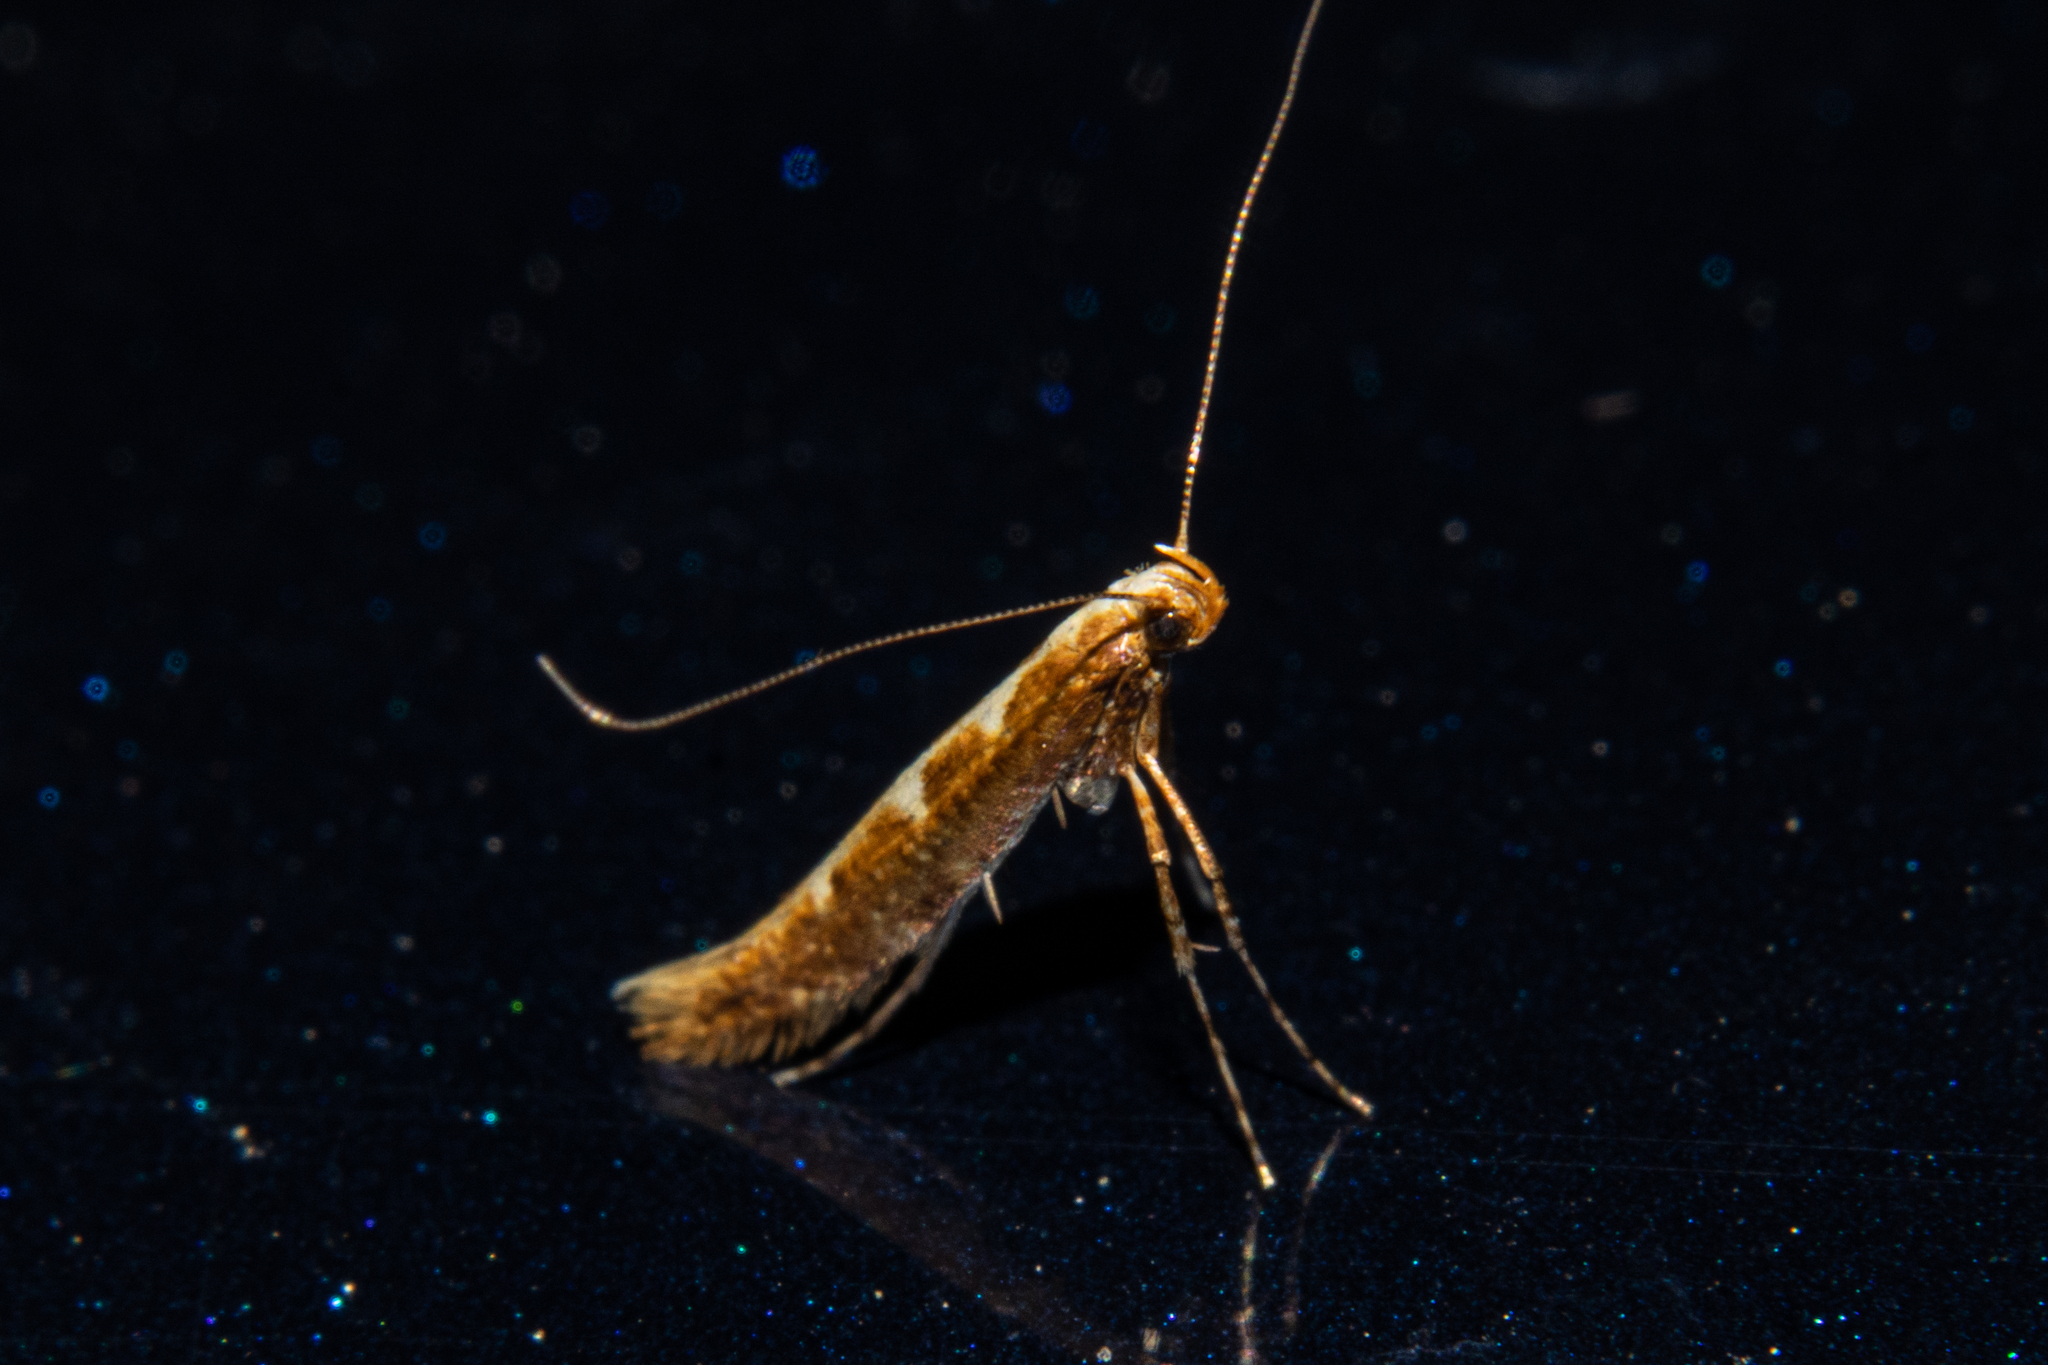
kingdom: Animalia
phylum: Arthropoda
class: Insecta
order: Lepidoptera
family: Gracillariidae
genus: Caloptilia
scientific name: Caloptilia selenitis
